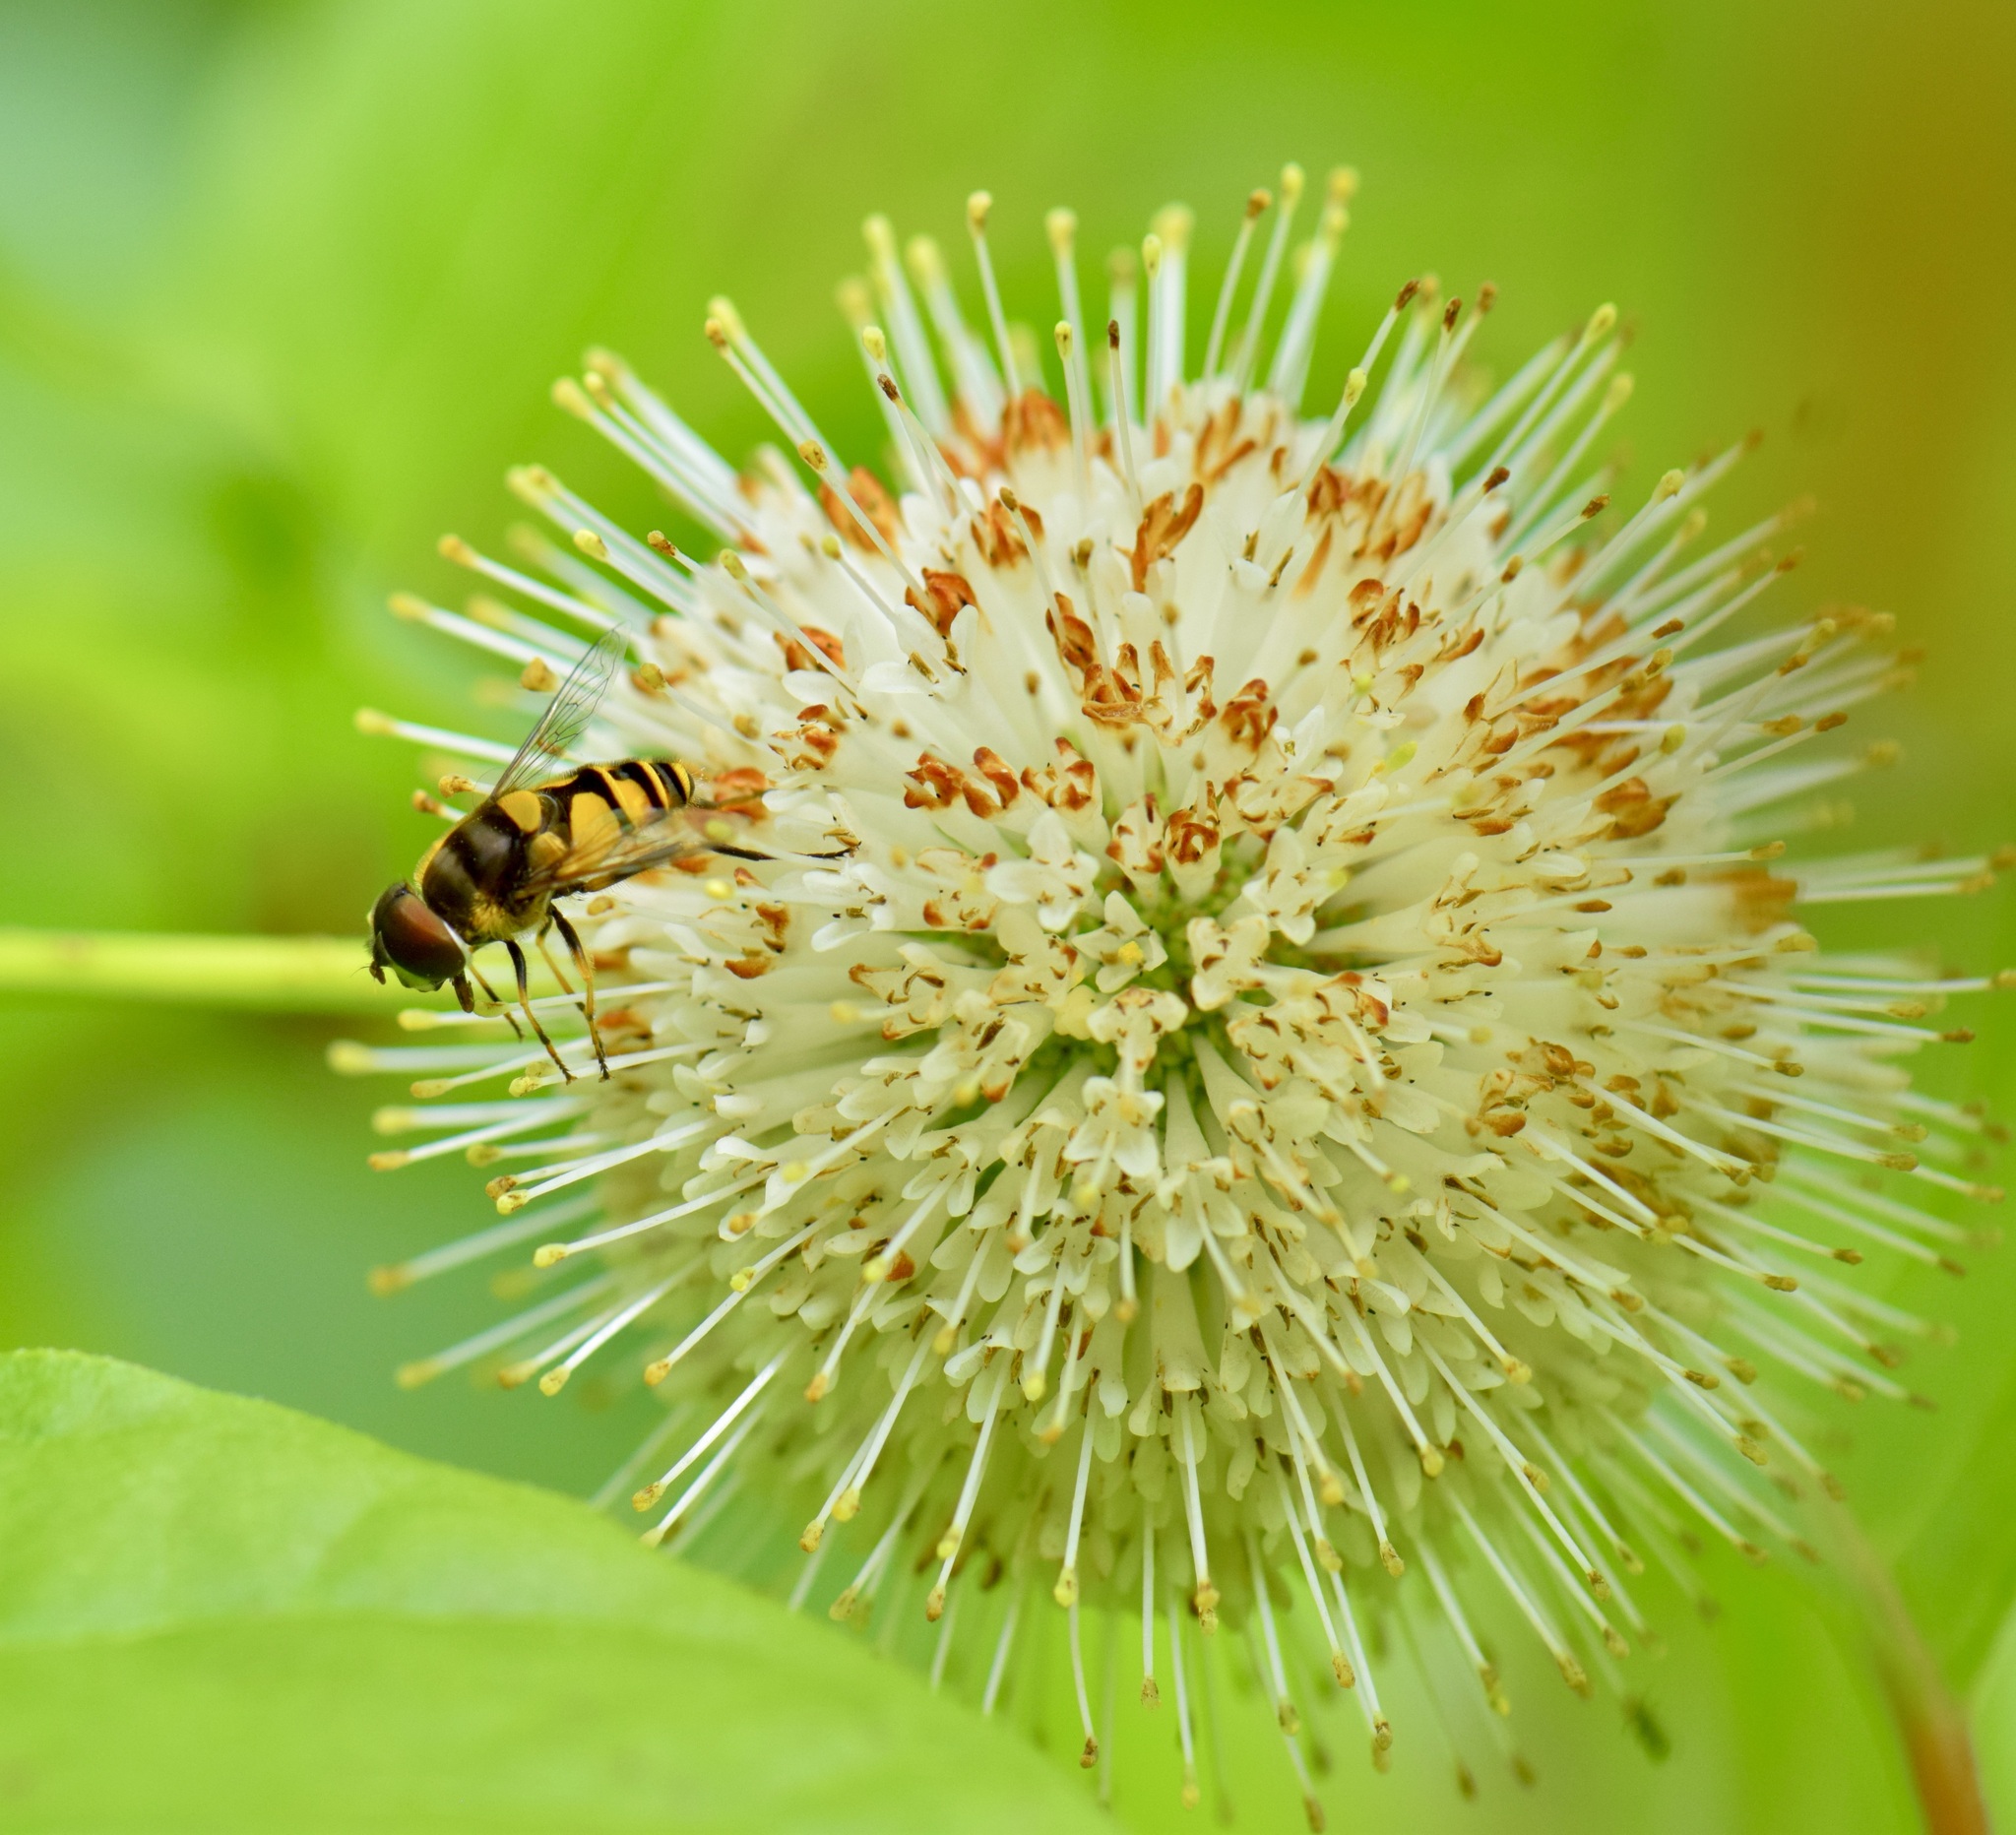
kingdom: Animalia
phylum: Arthropoda
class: Insecta
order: Diptera
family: Syrphidae
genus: Eristalis
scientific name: Eristalis transversa
